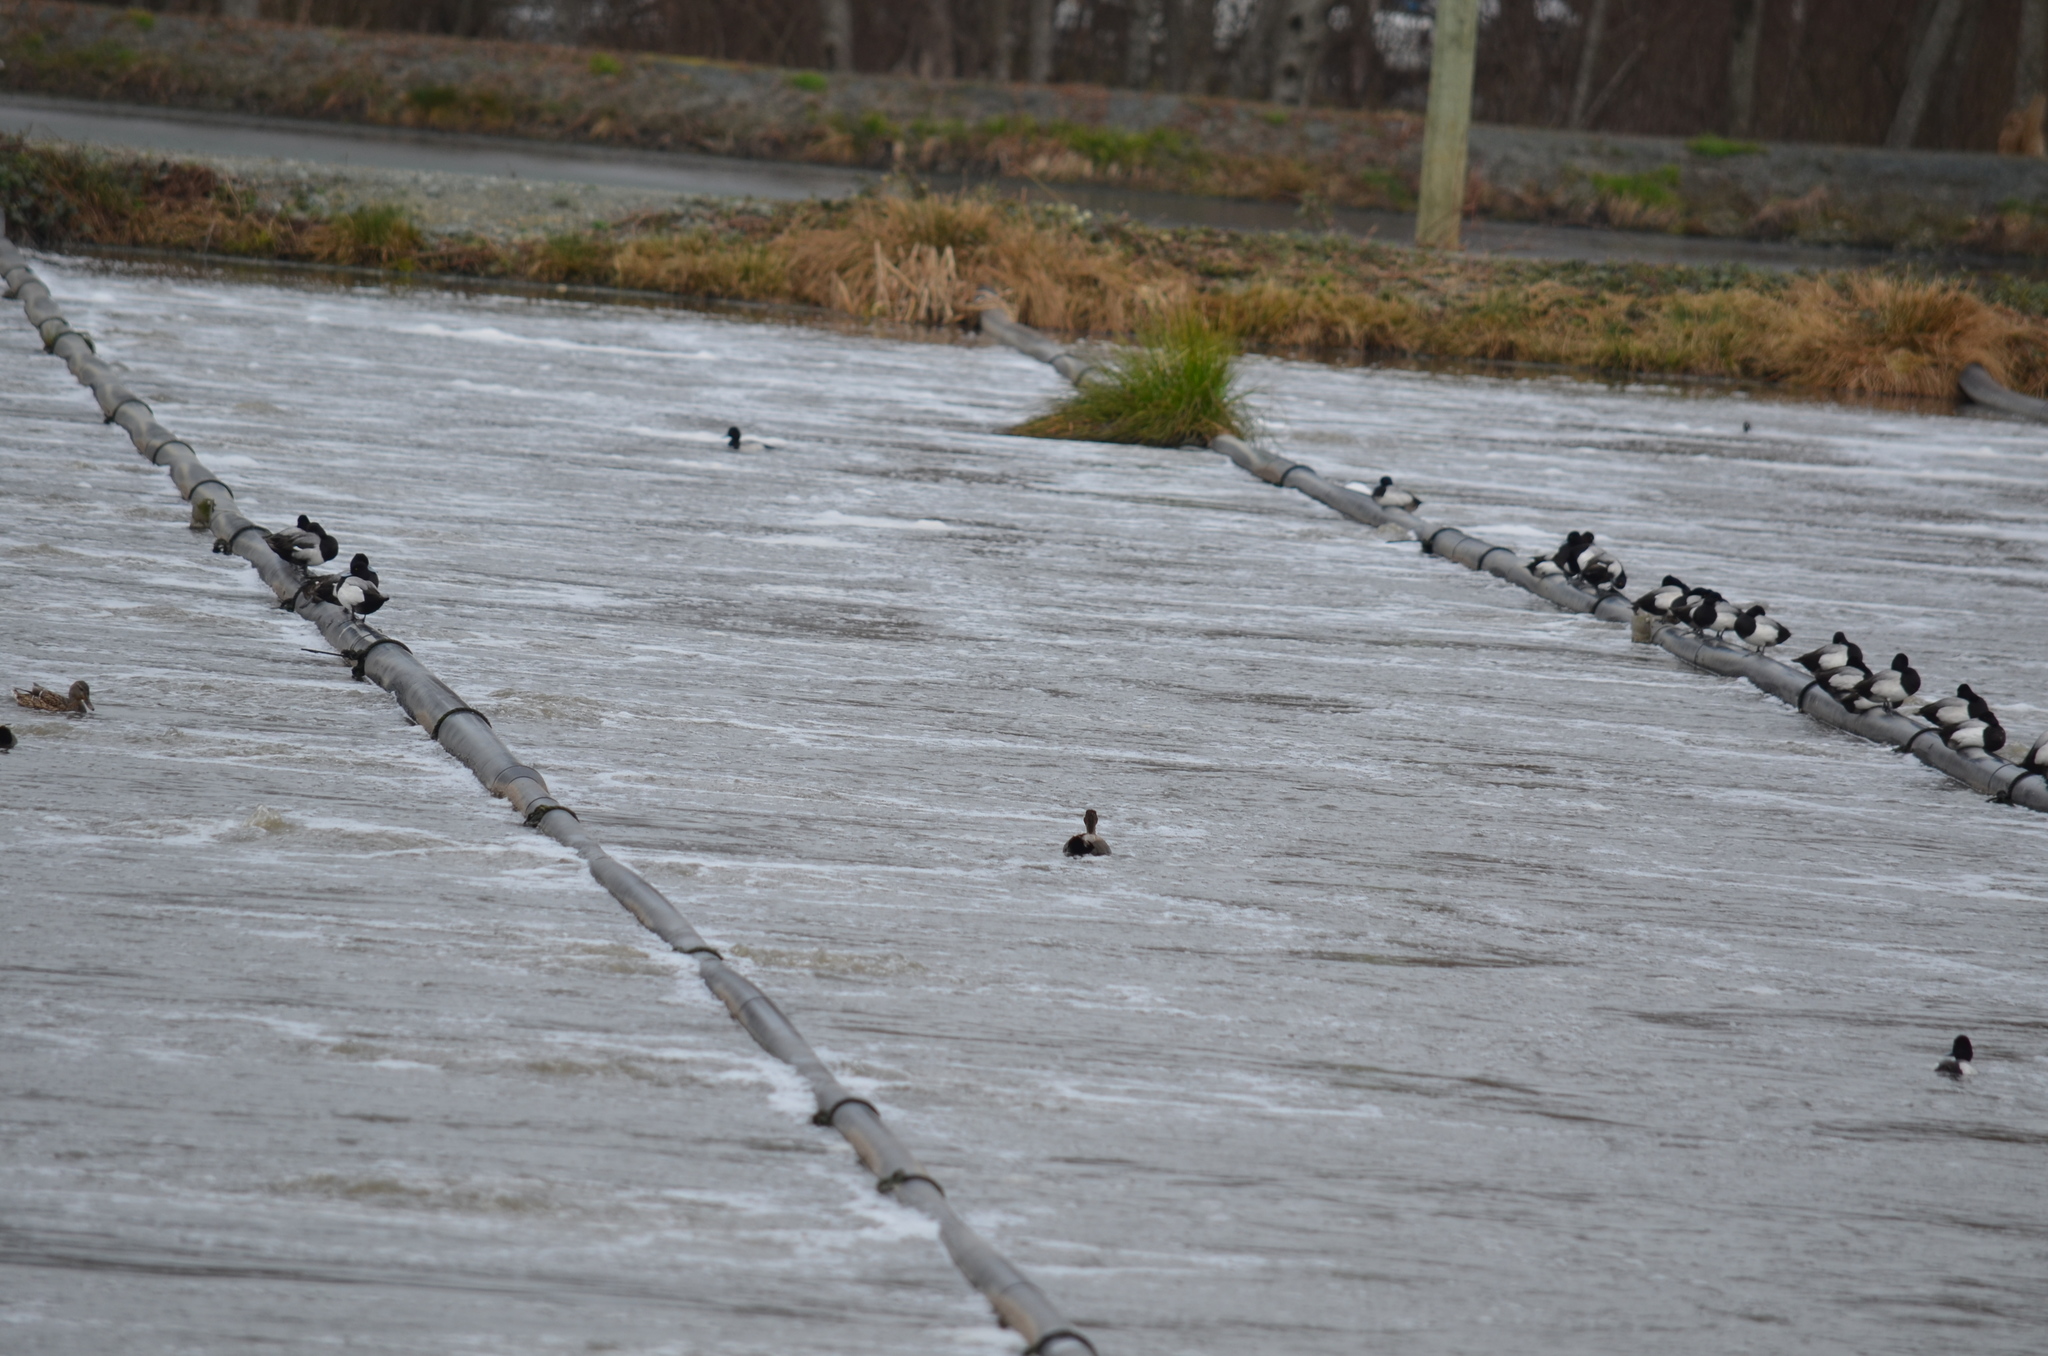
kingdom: Animalia
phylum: Chordata
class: Aves
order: Anseriformes
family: Anatidae
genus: Mareca
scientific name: Mareca strepera
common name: Gadwall
